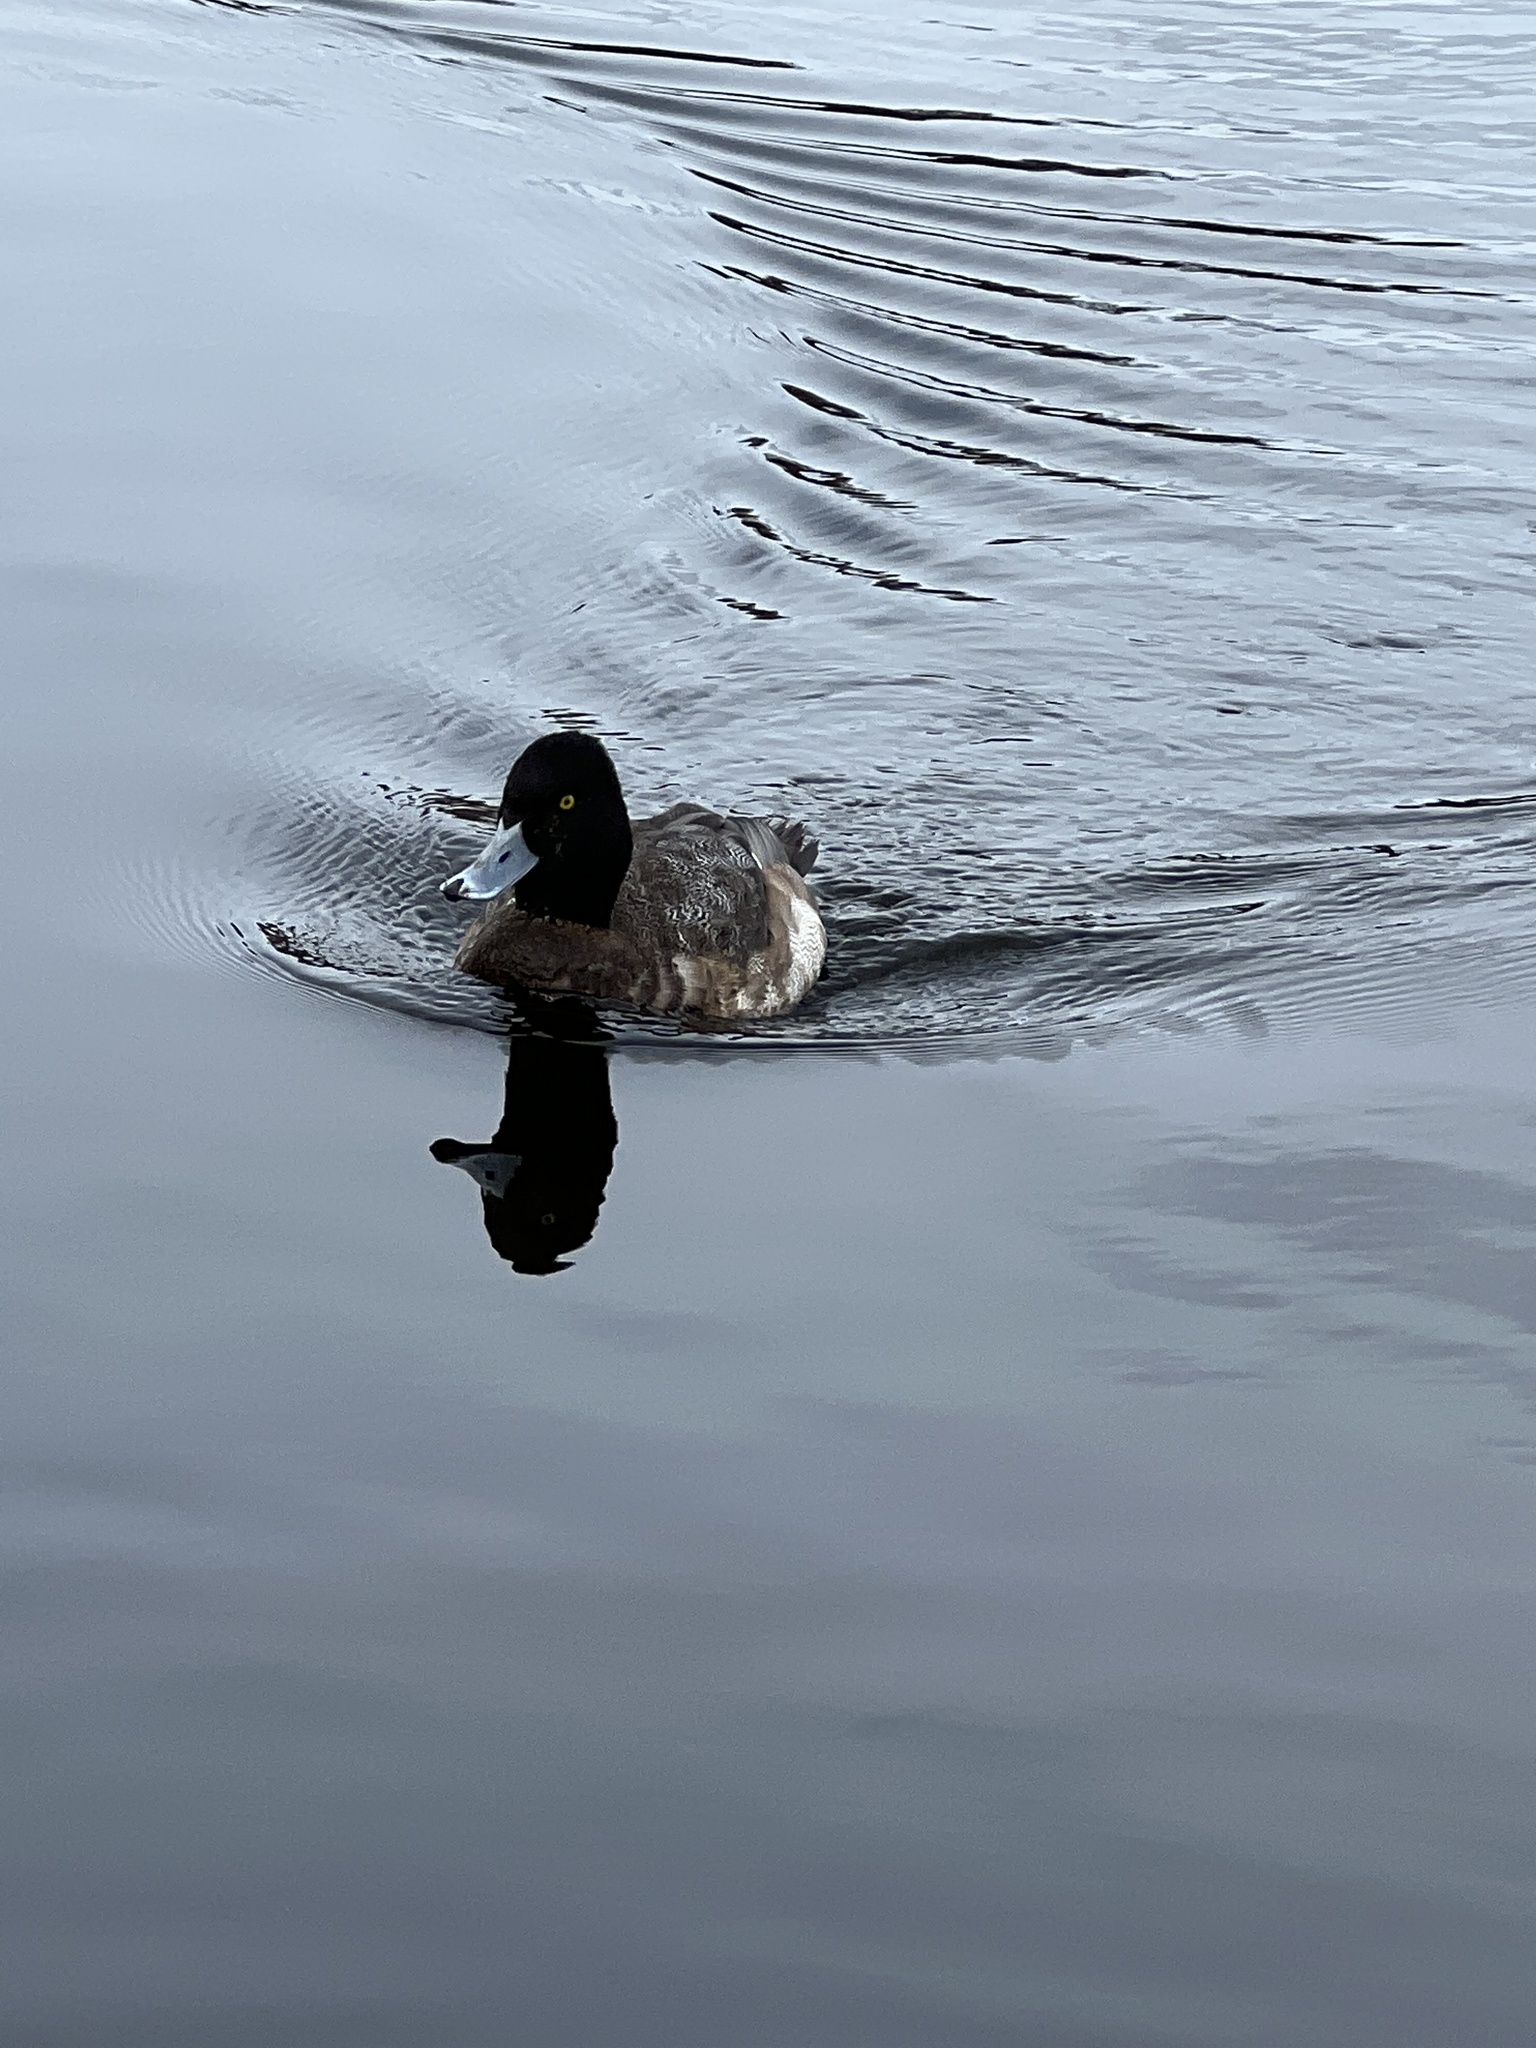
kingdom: Animalia
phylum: Chordata
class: Aves
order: Anseriformes
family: Anatidae
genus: Aythya
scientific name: Aythya affinis
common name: Lesser scaup
